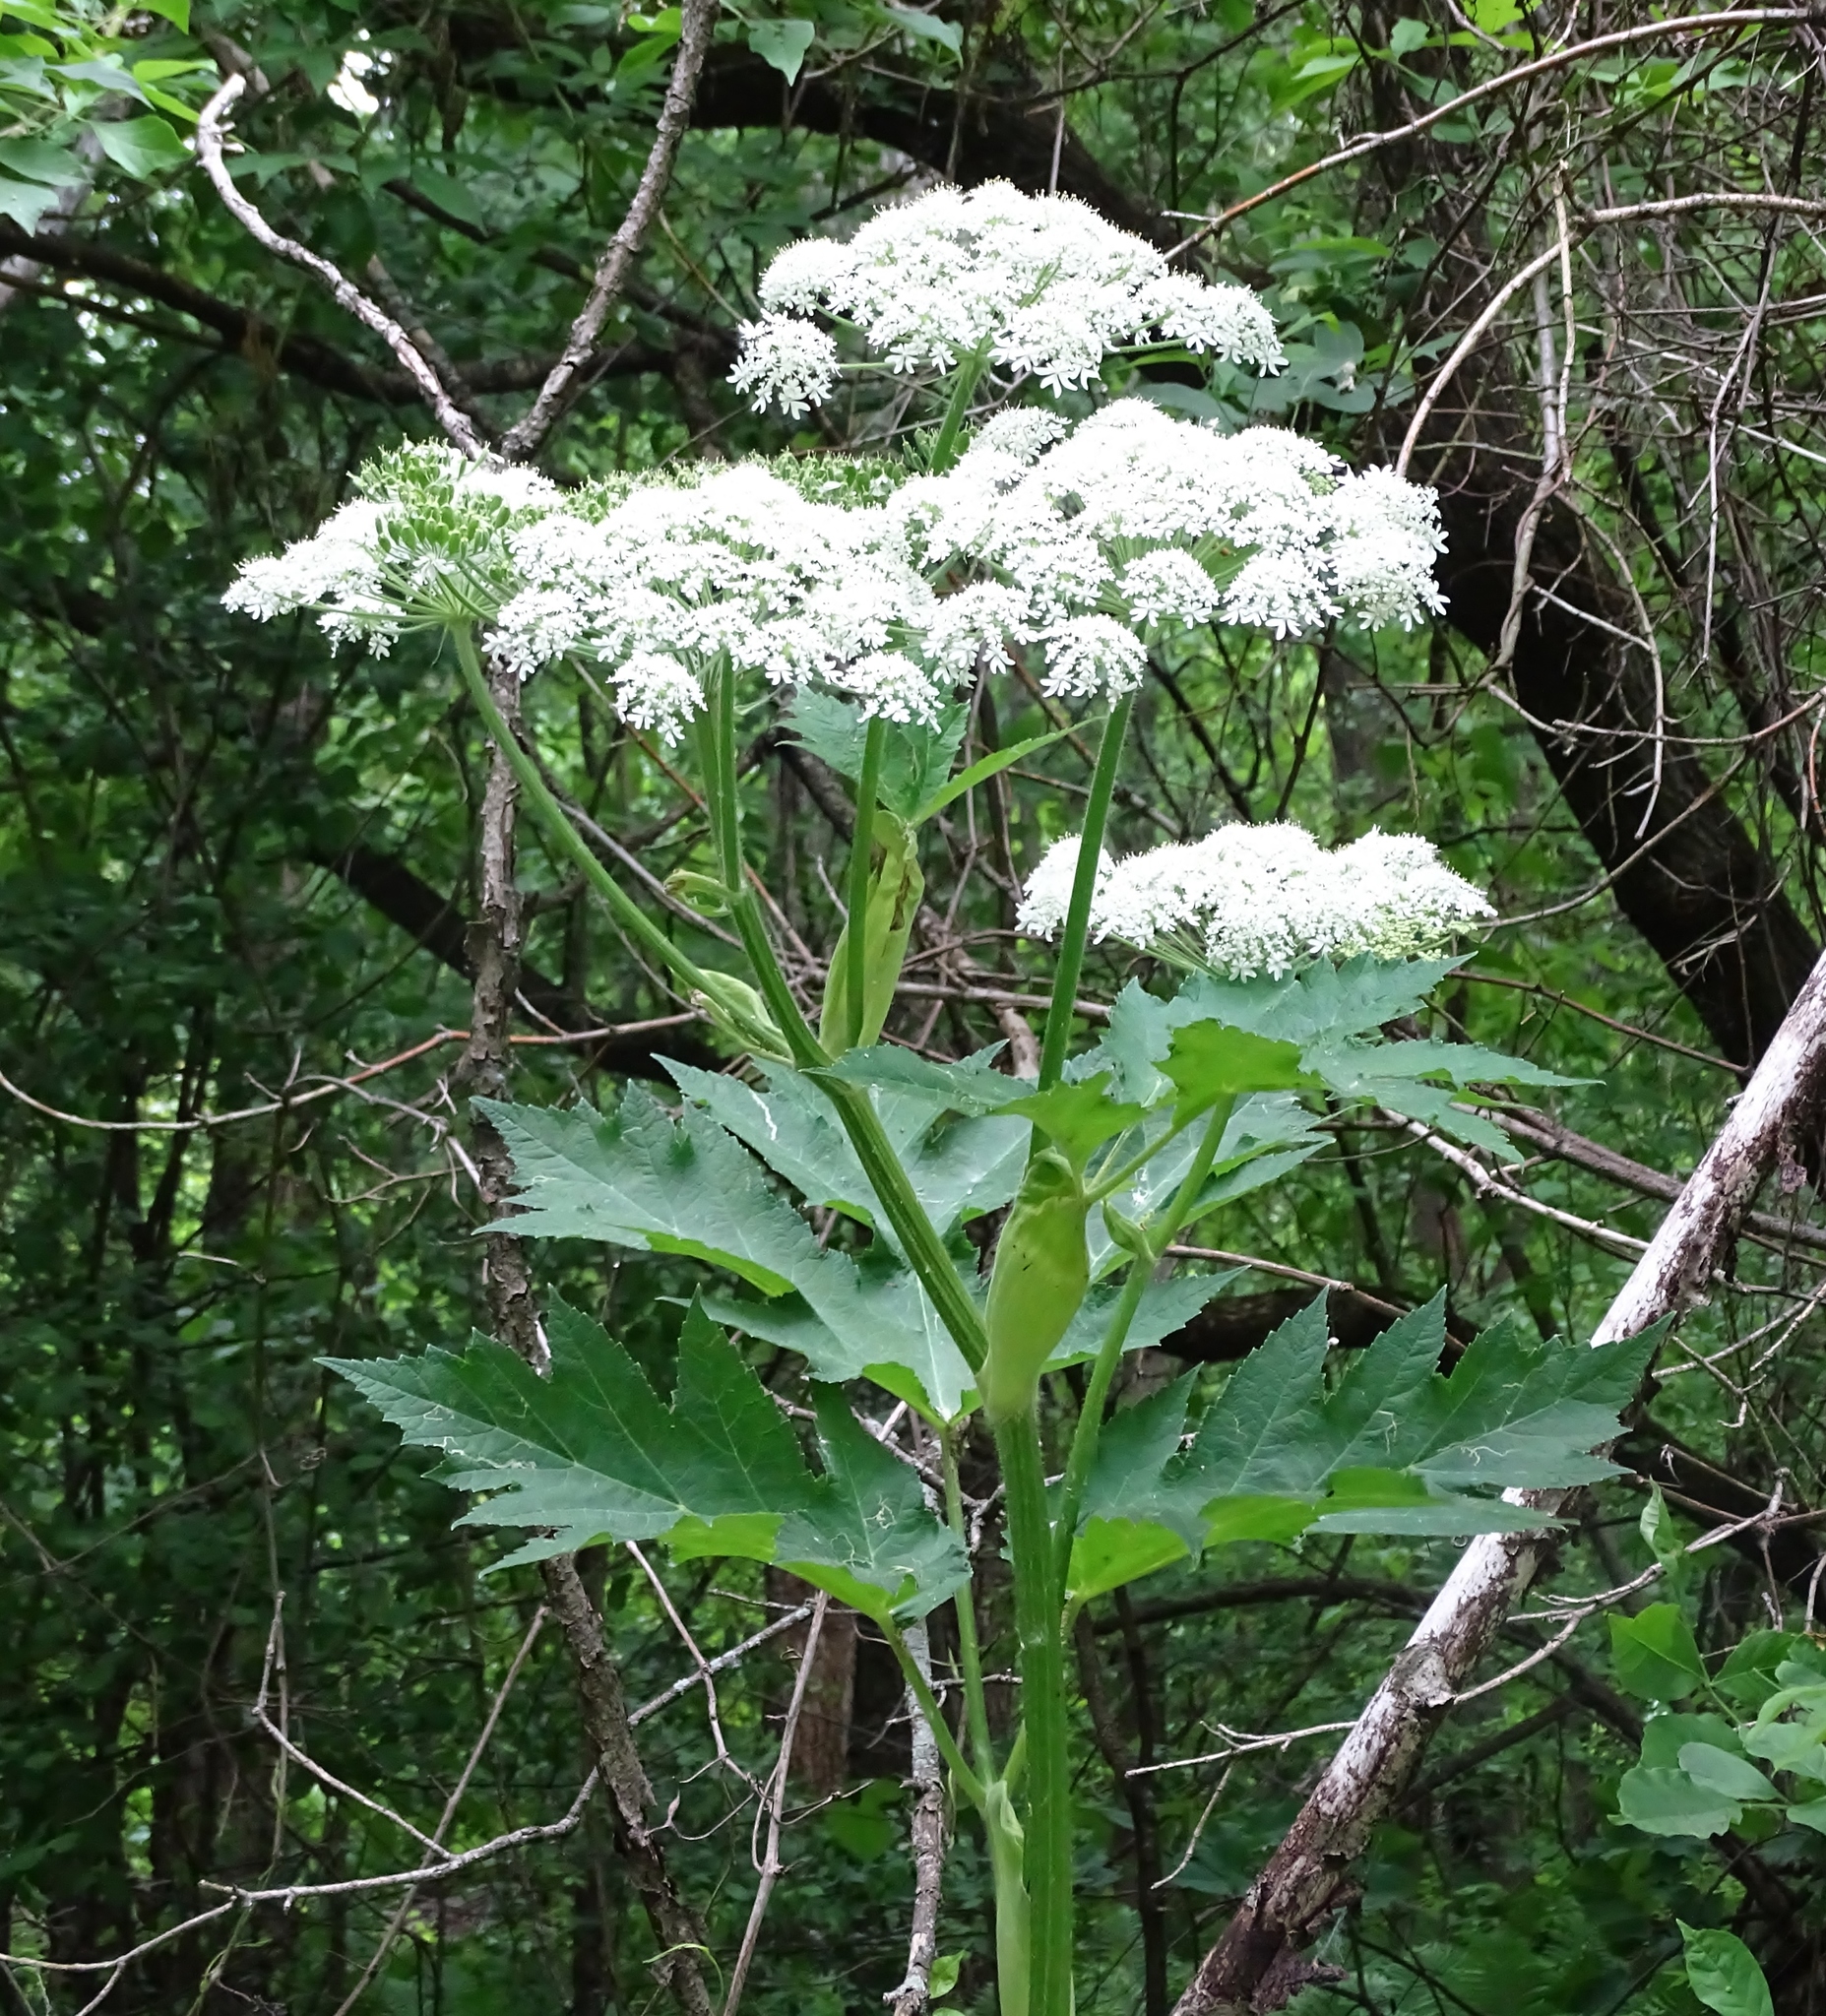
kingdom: Plantae
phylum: Tracheophyta
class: Magnoliopsida
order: Apiales
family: Apiaceae
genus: Heracleum
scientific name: Heracleum maximum
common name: American cow parsnip
